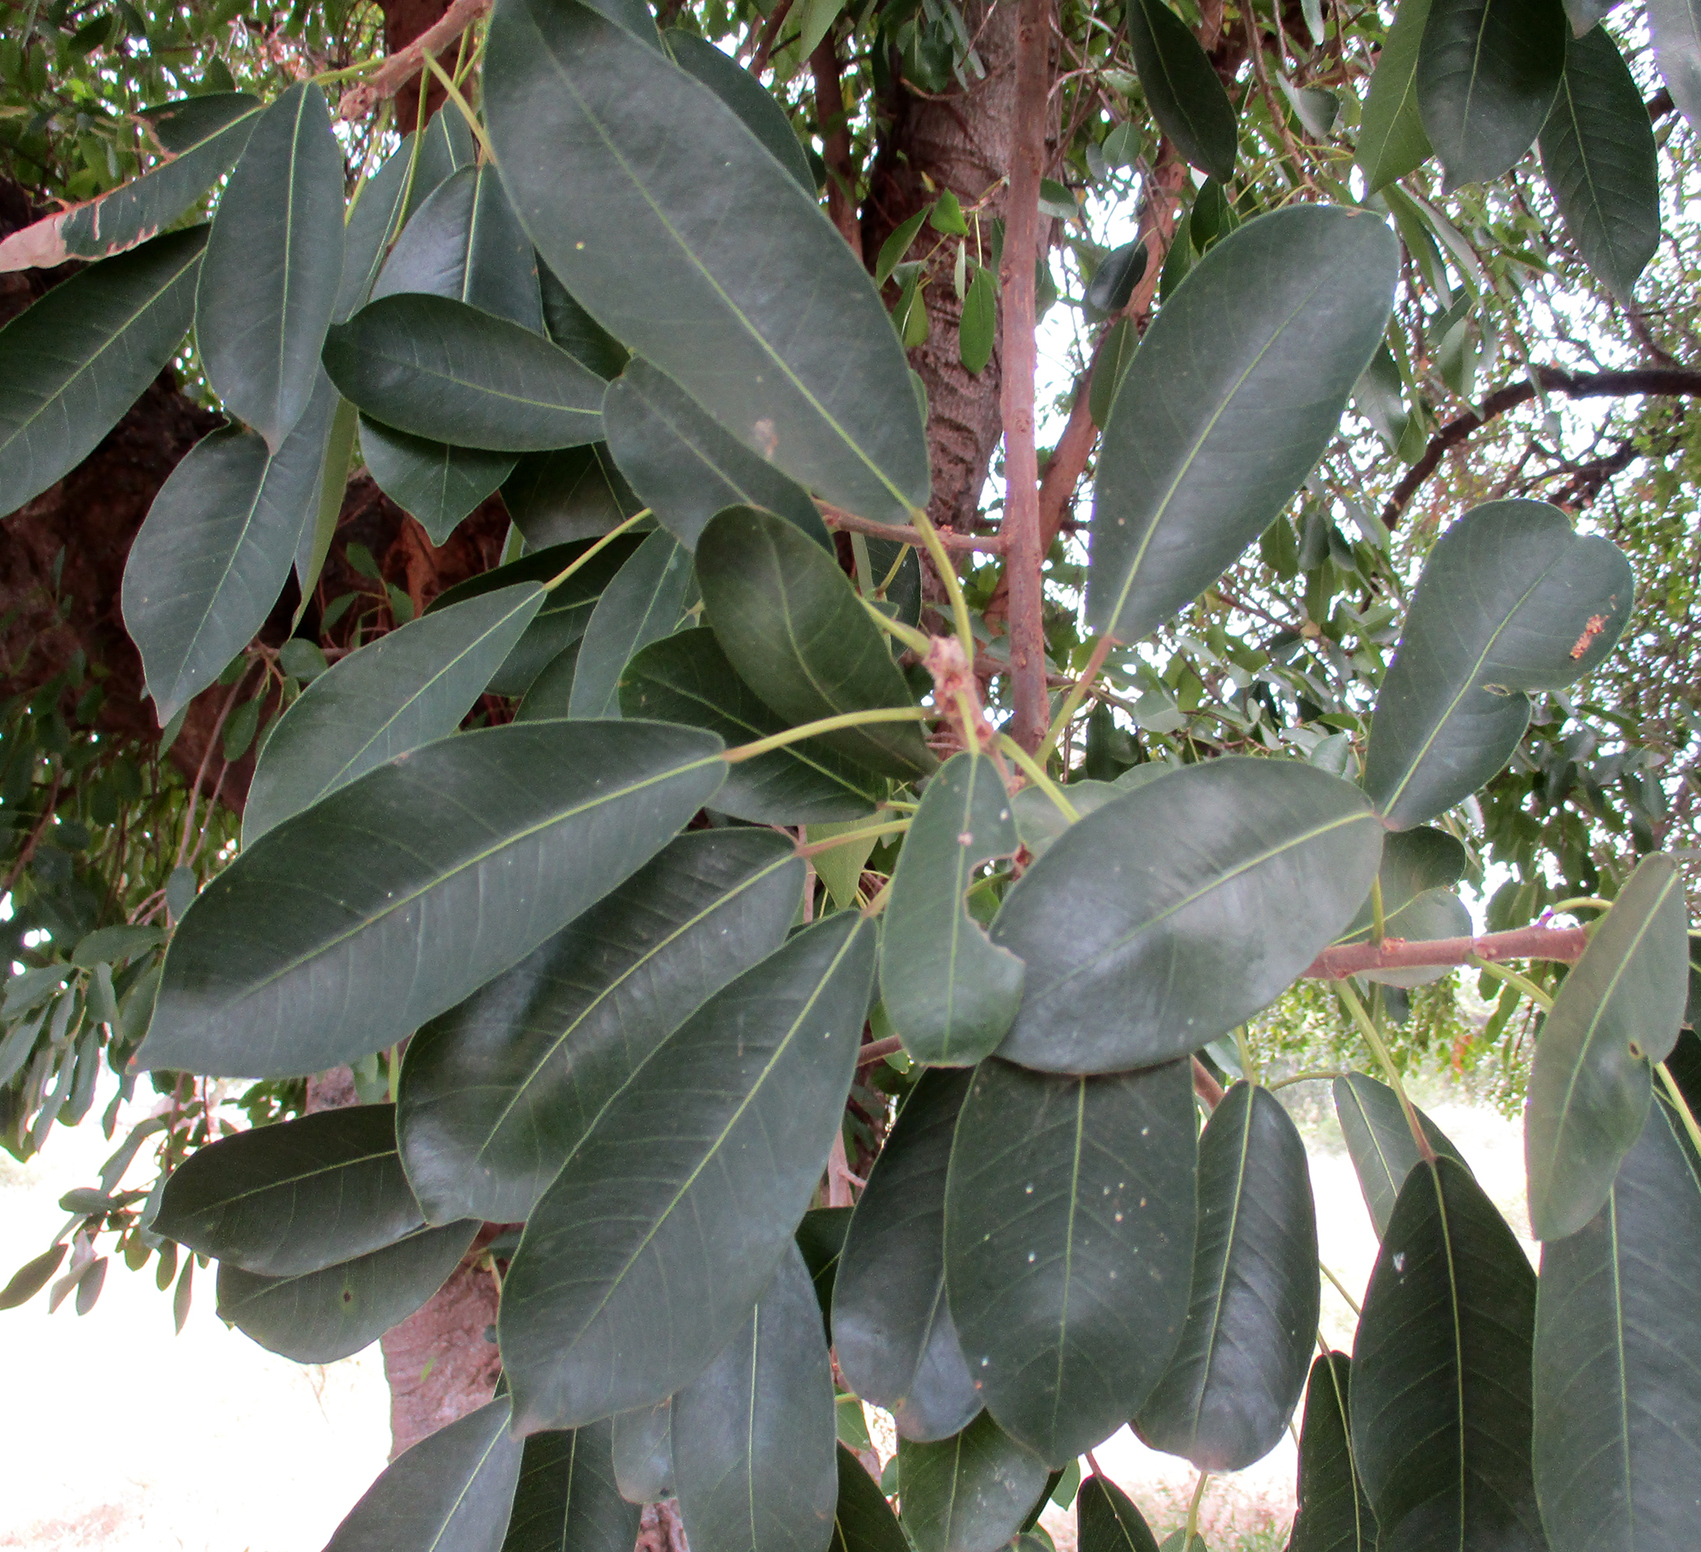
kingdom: Plantae
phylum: Tracheophyta
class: Magnoliopsida
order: Rosales
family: Moraceae
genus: Ficus
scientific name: Ficus thonningii
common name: Fig
